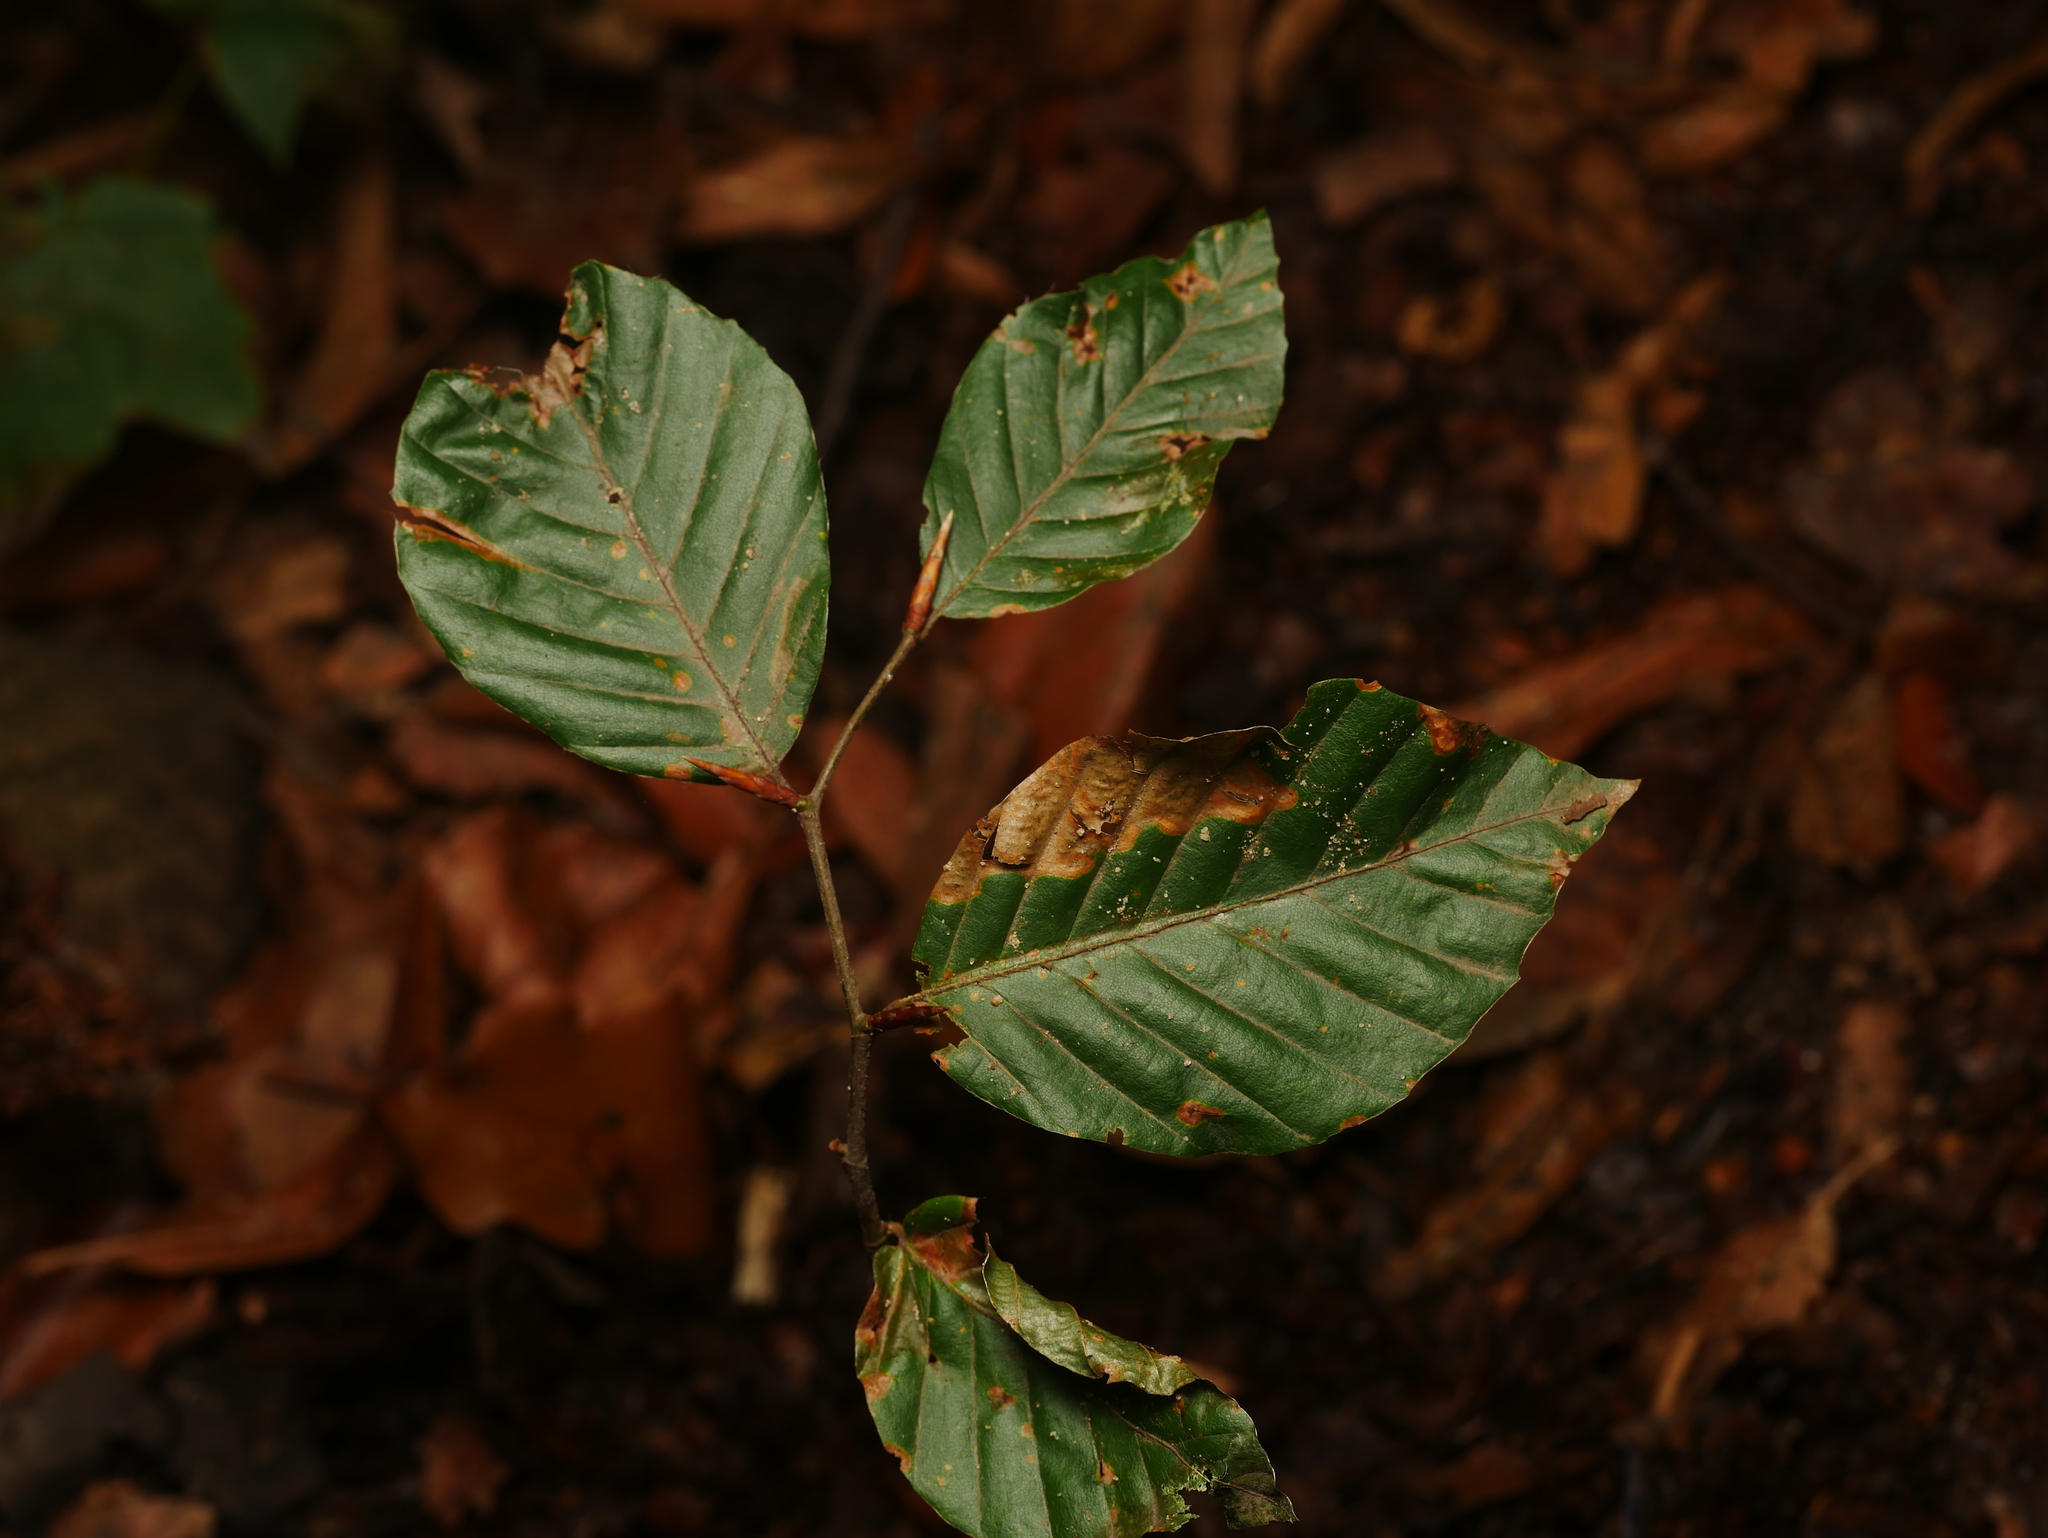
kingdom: Plantae
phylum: Tracheophyta
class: Magnoliopsida
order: Fagales
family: Fagaceae
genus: Fagus
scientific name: Fagus sylvatica
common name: Beech
